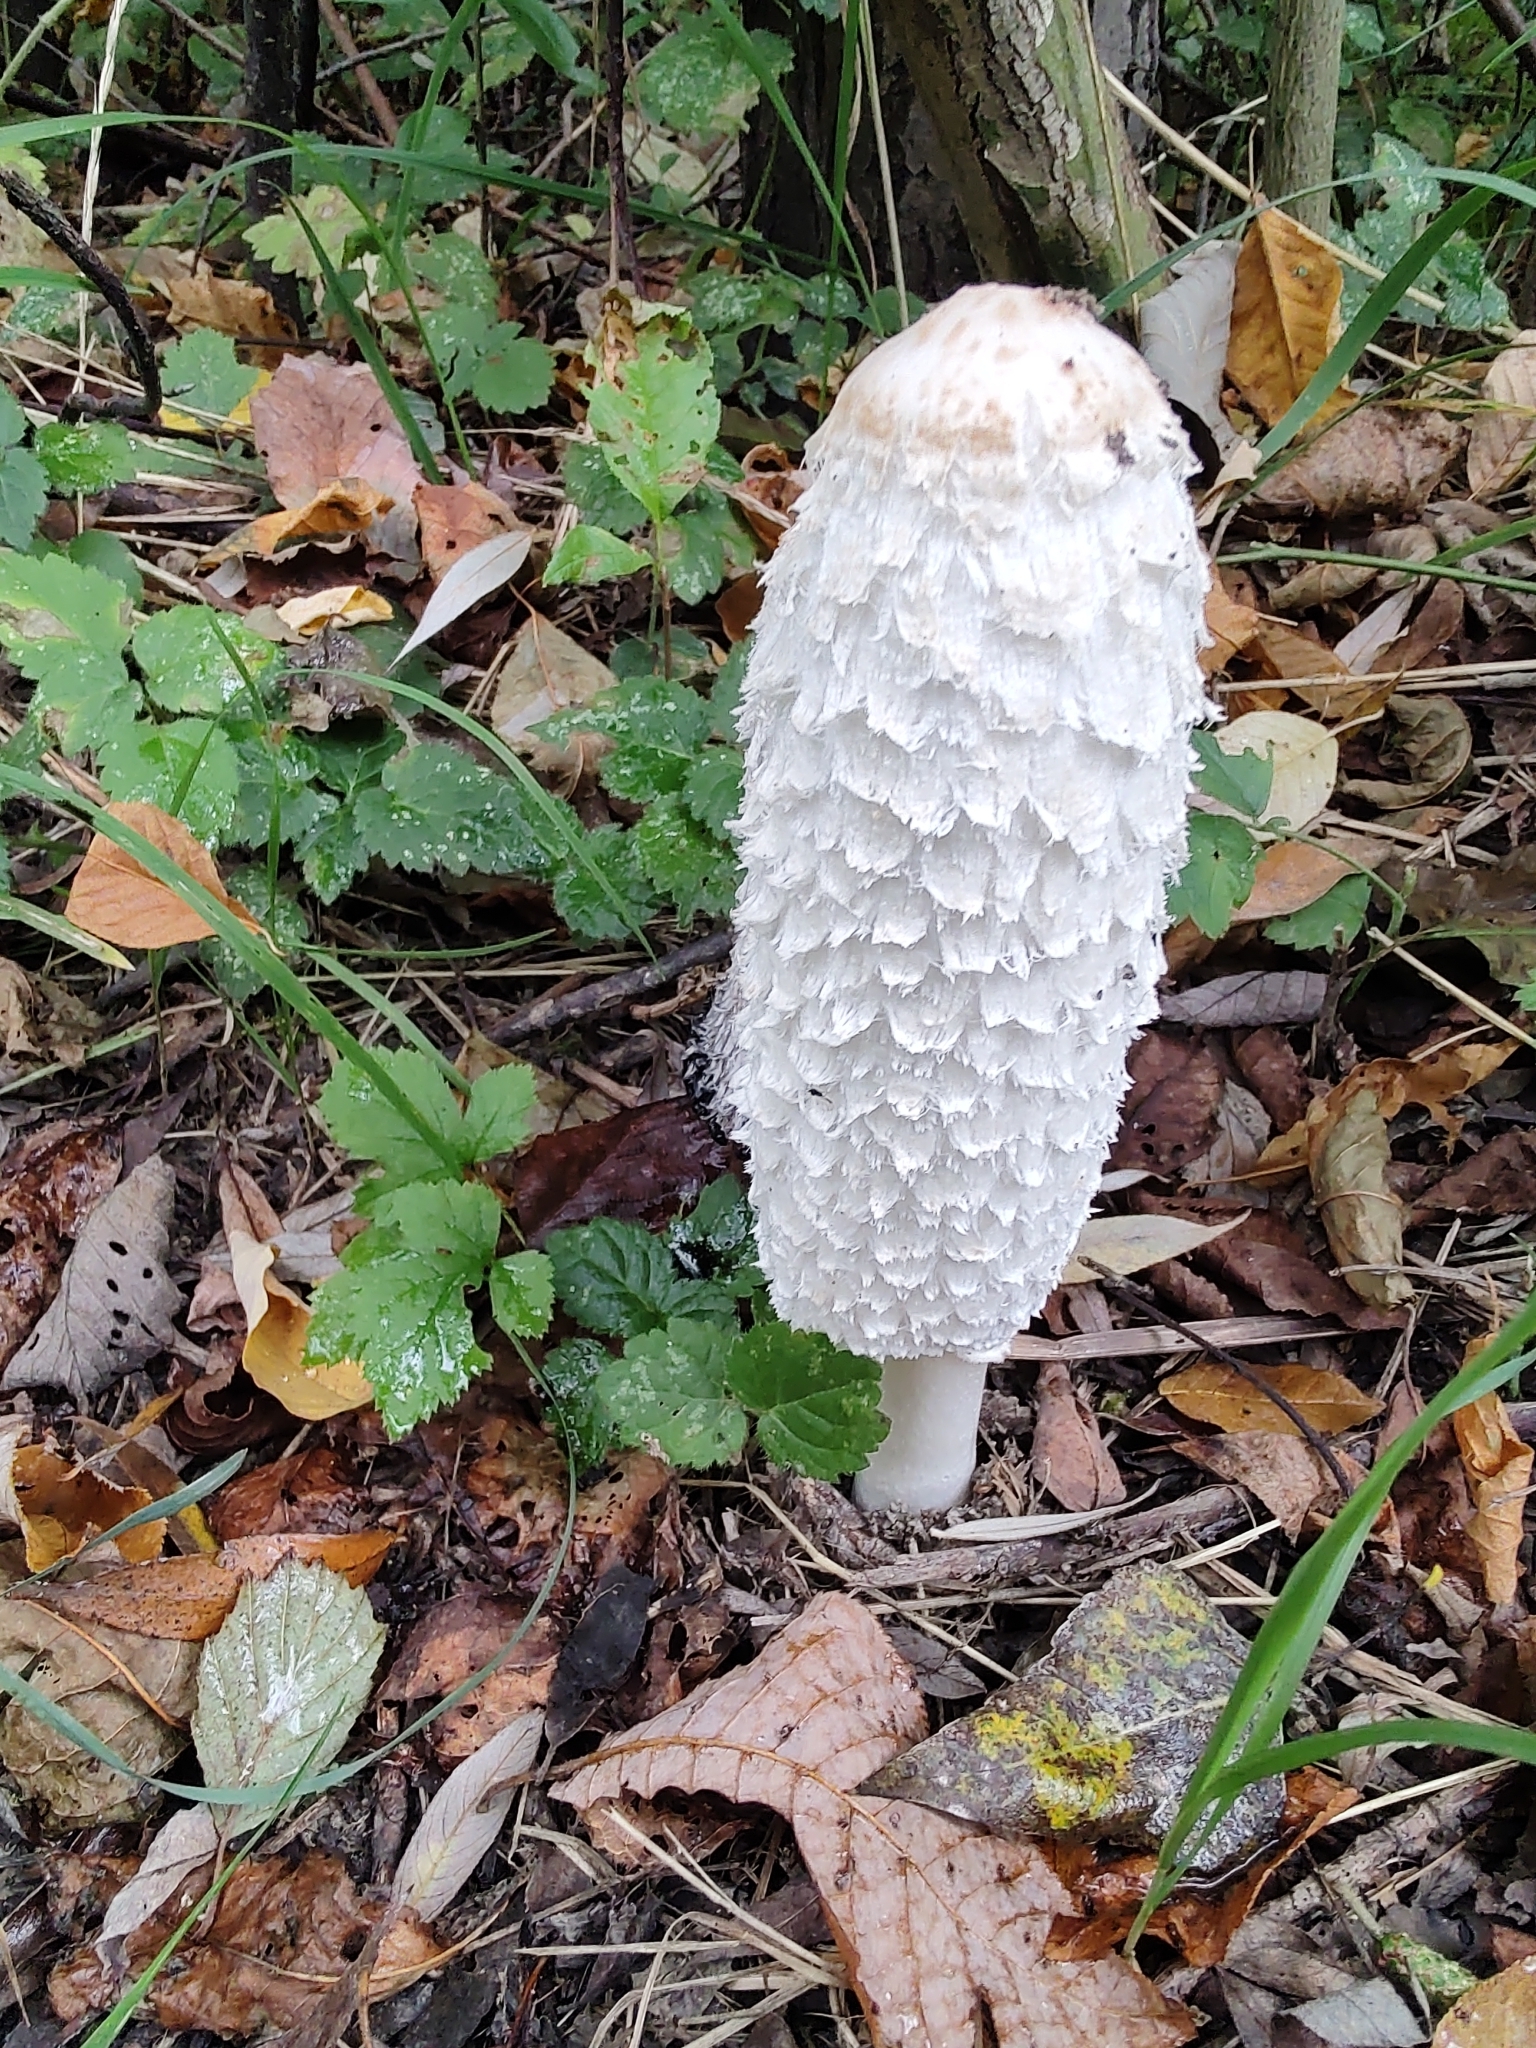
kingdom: Fungi
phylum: Basidiomycota
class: Agaricomycetes
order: Agaricales
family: Agaricaceae
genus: Coprinus
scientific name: Coprinus comatus
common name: Lawyer's wig
